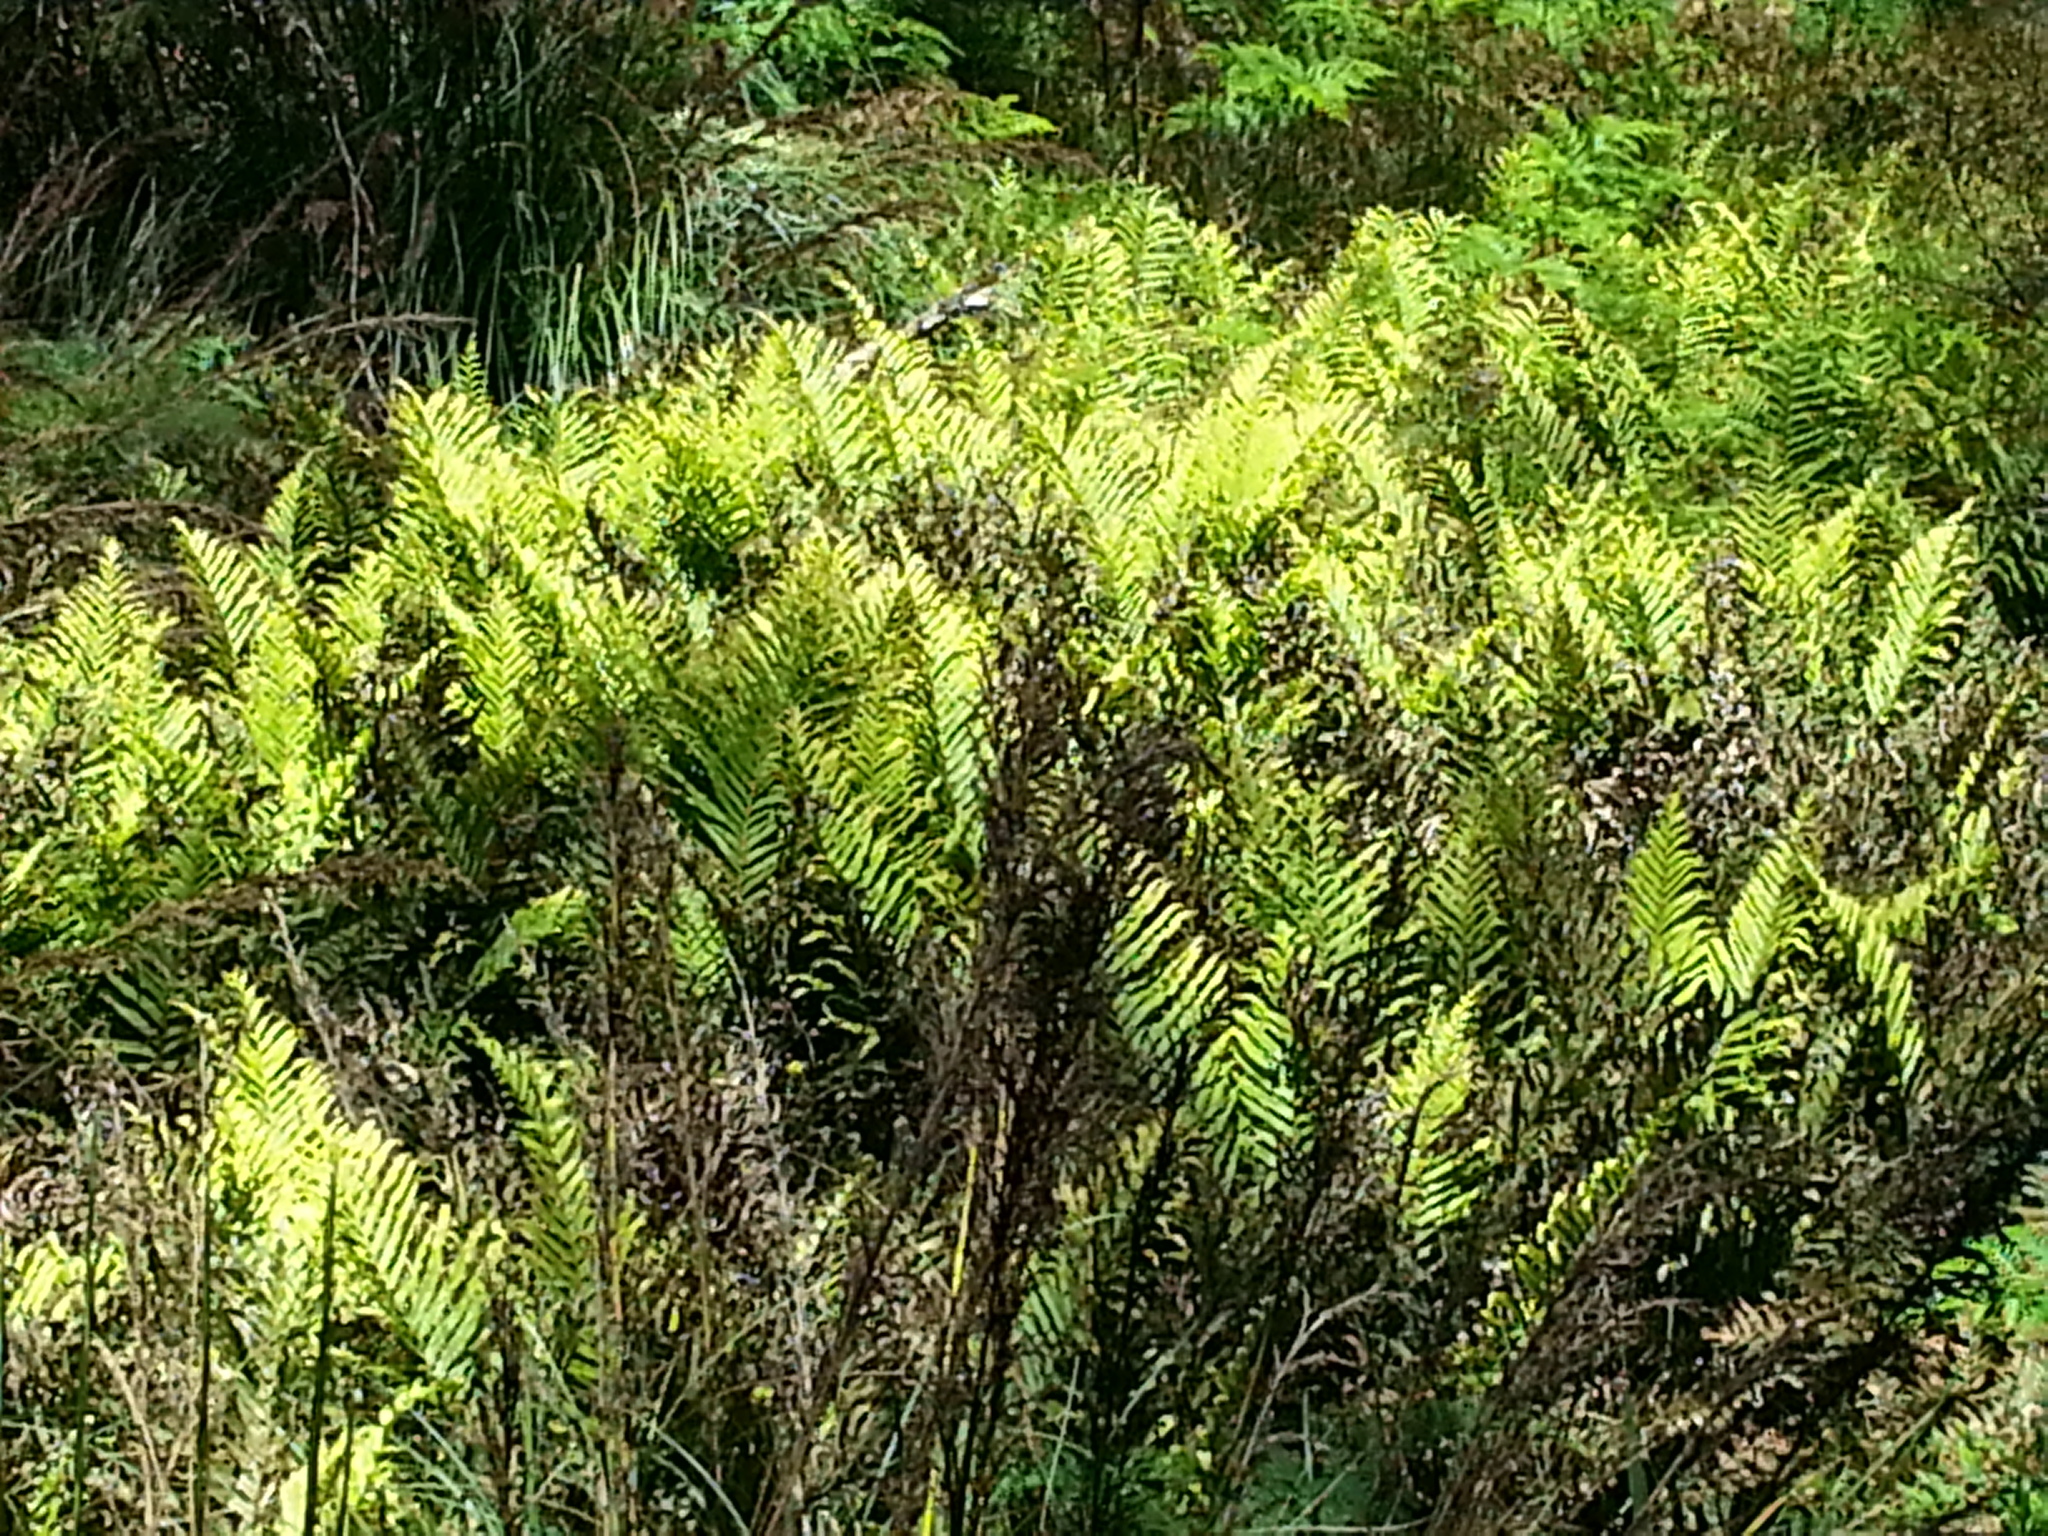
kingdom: Plantae
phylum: Tracheophyta
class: Polypodiopsida
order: Polypodiales
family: Blechnaceae
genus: Parablechnum
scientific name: Parablechnum minus
